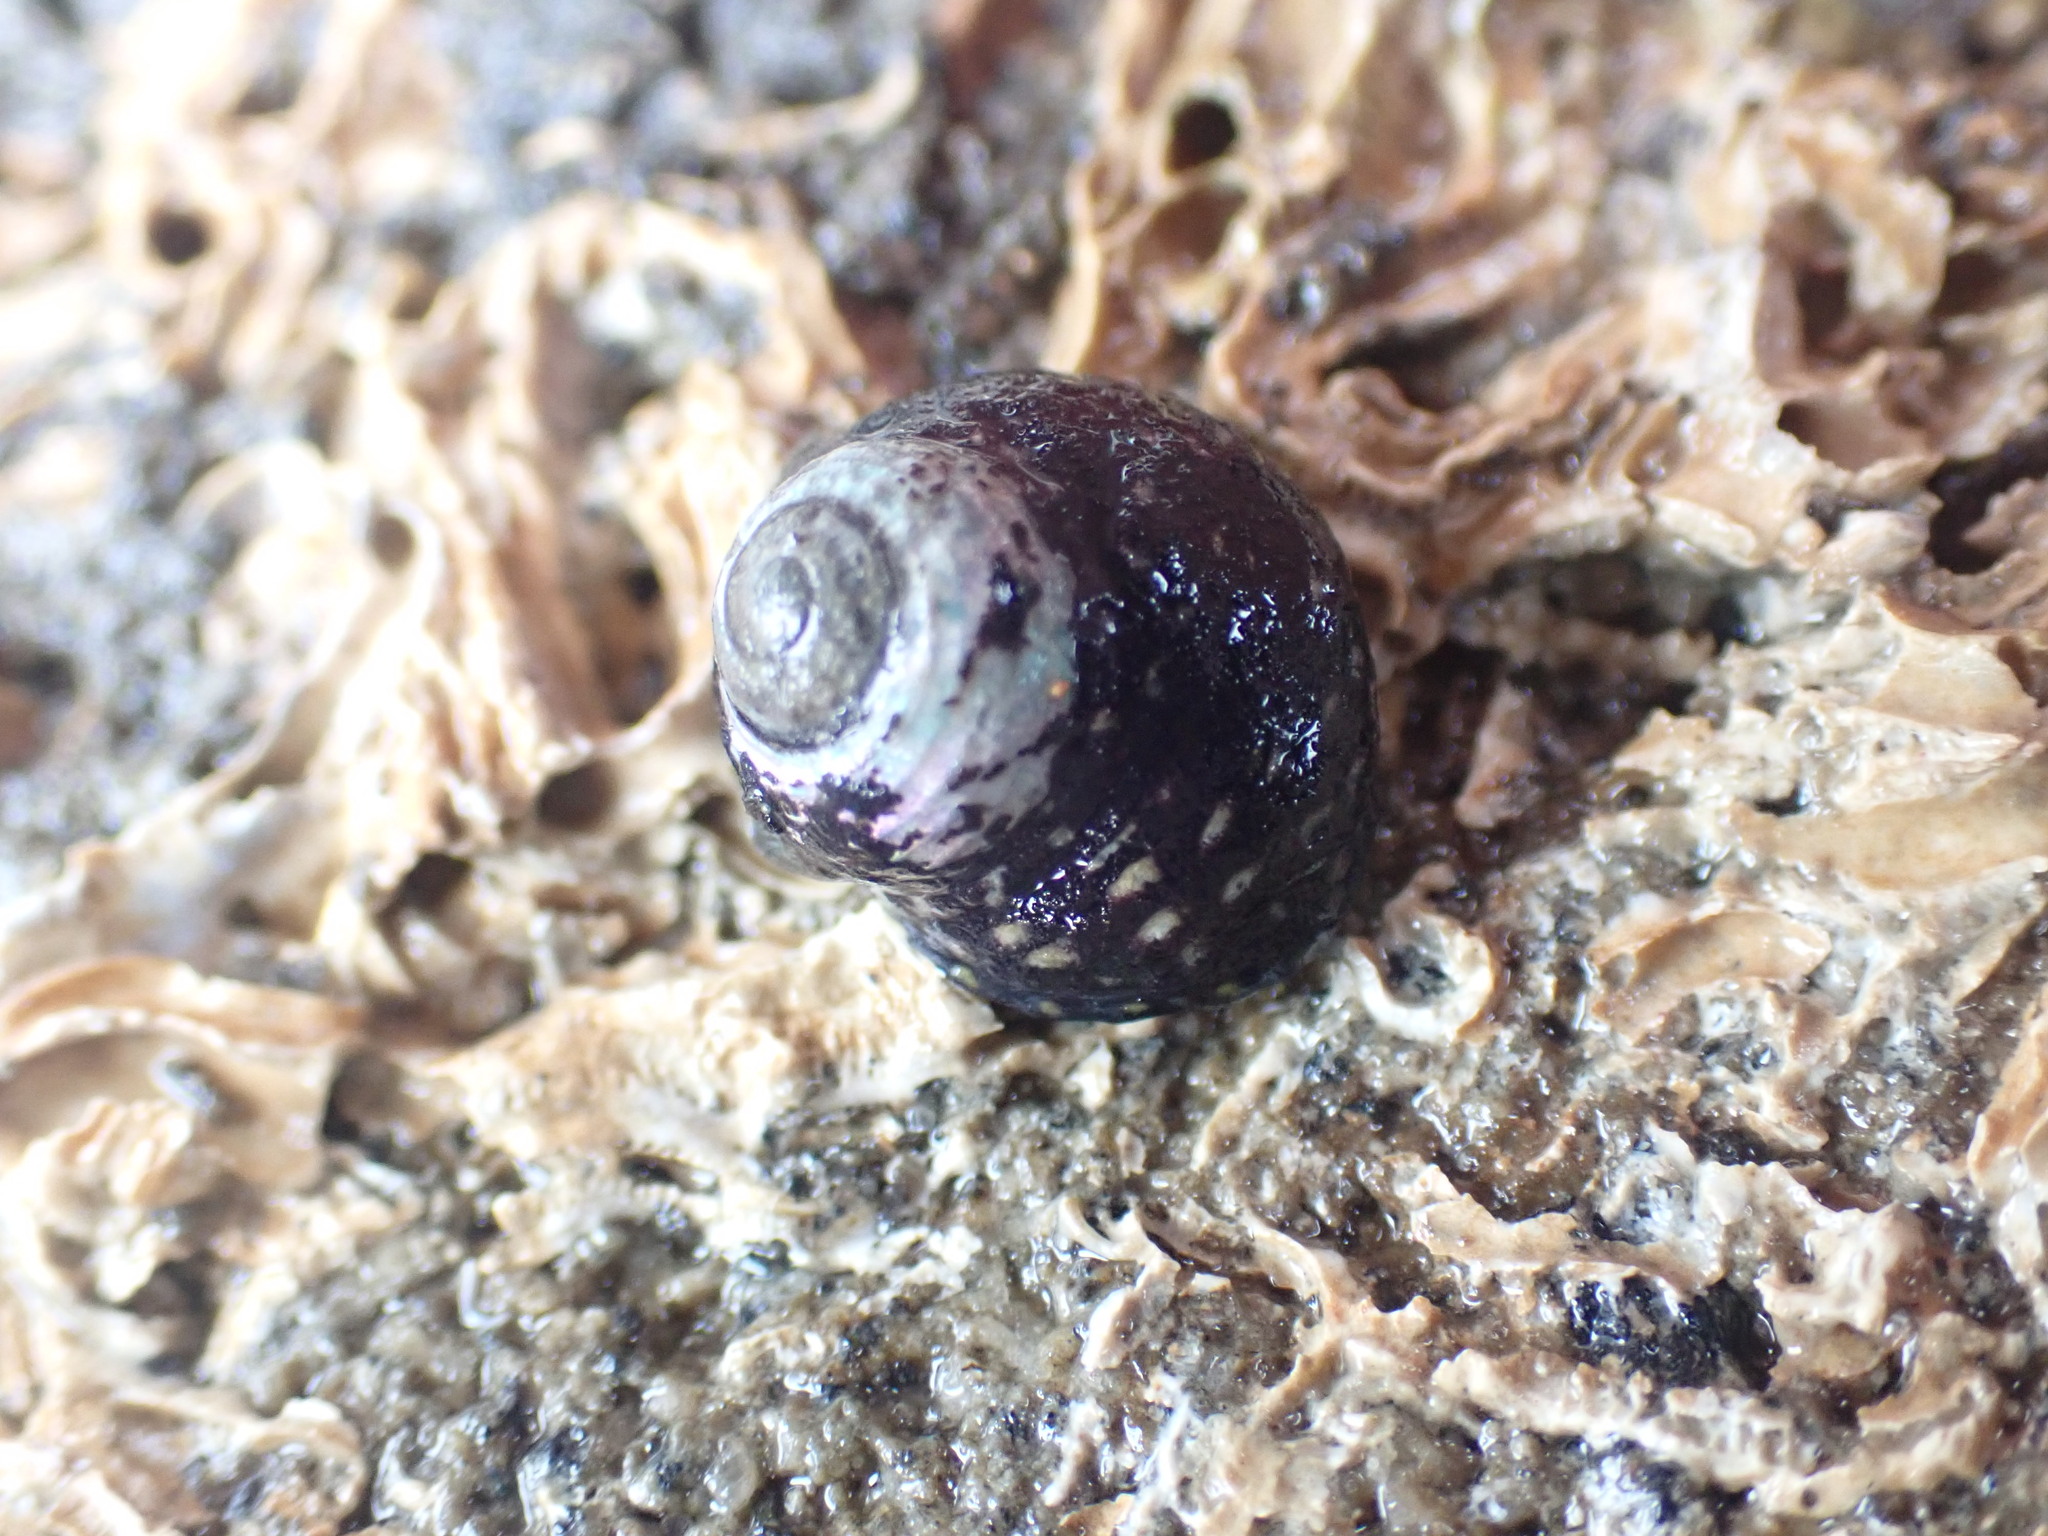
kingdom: Animalia
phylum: Mollusca
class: Gastropoda
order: Trochida
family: Trochidae
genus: Diloma
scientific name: Diloma aridum
